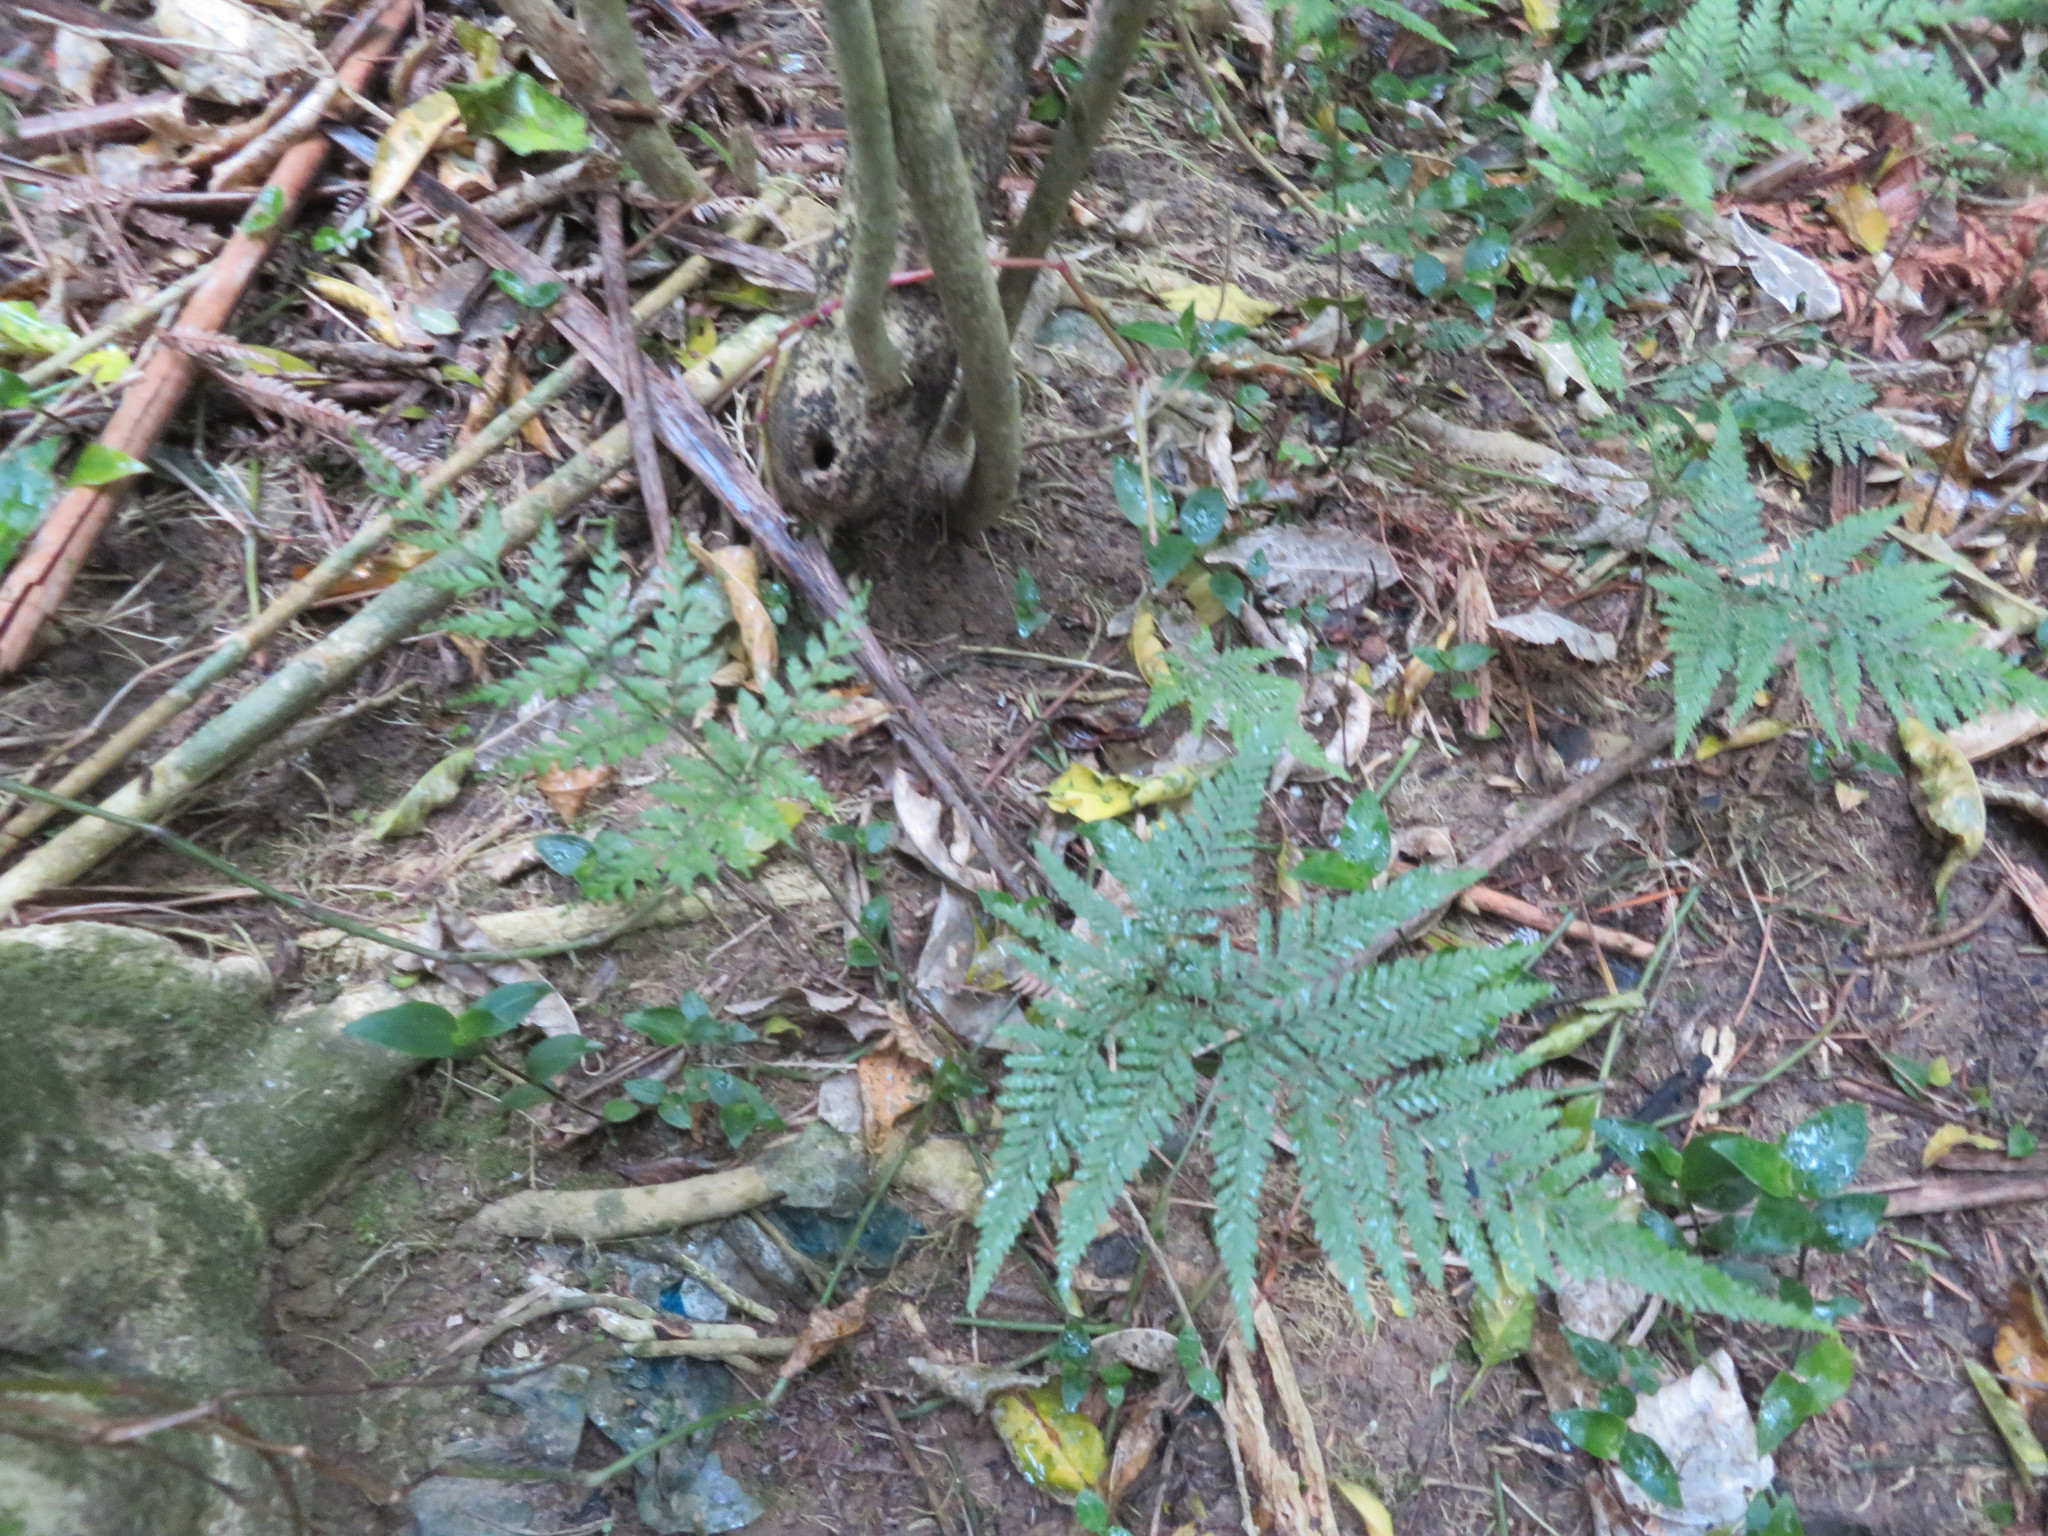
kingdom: Plantae
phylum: Tracheophyta
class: Polypodiopsida
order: Polypodiales
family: Dryopteridaceae
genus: Parapolystichum
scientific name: Parapolystichum microsorum
